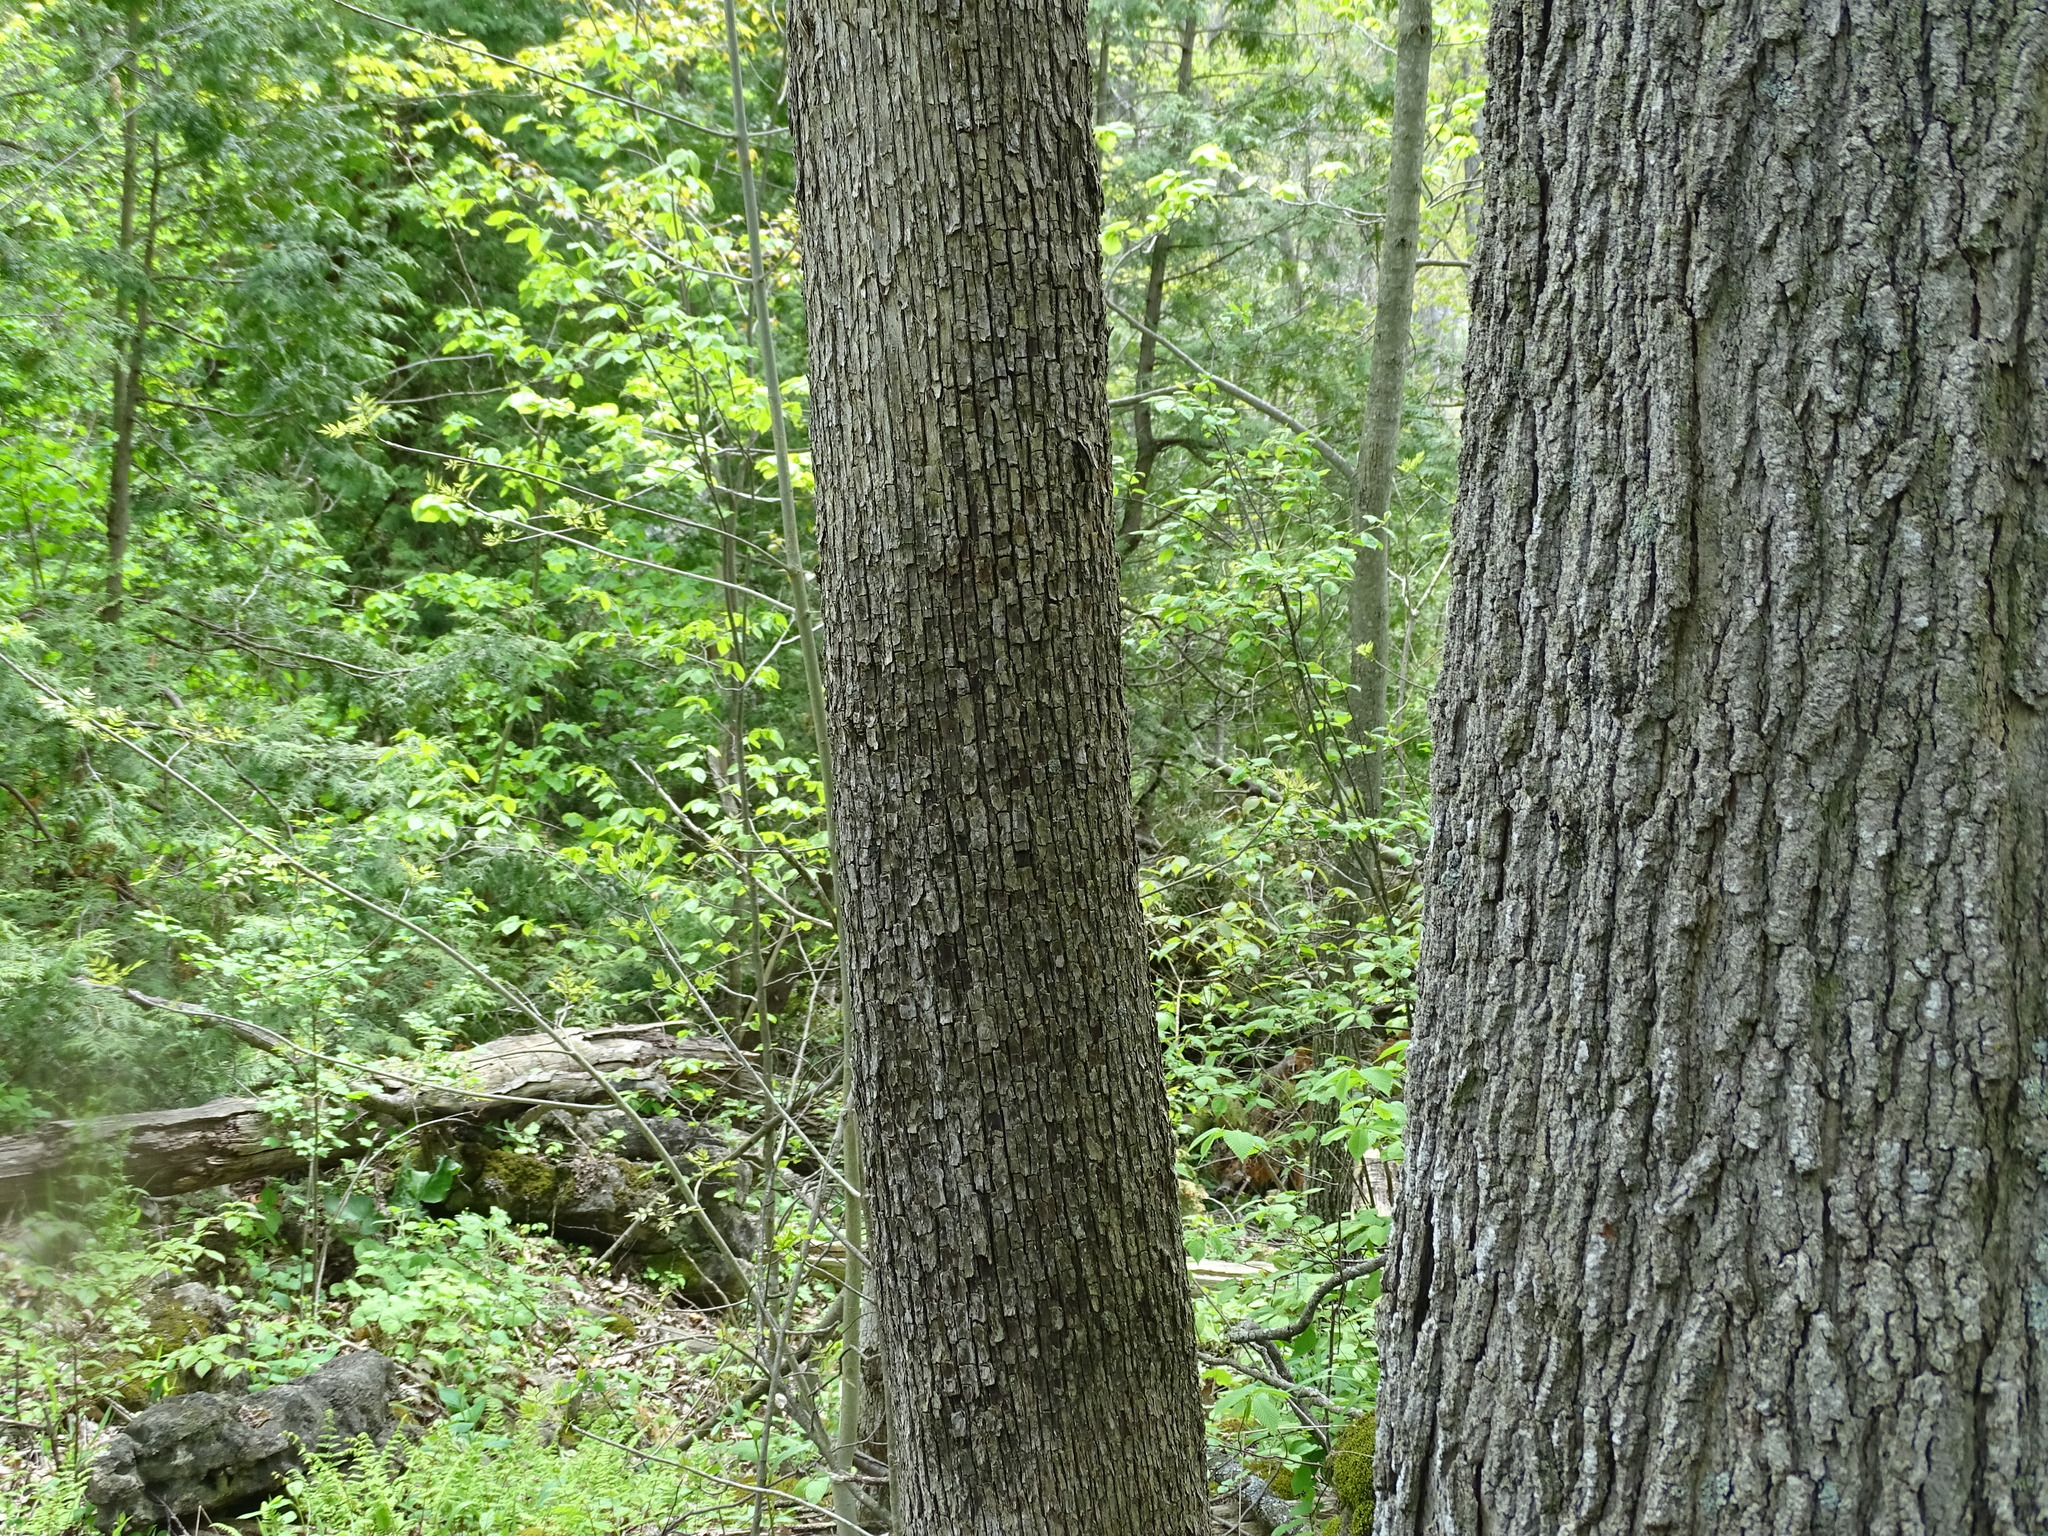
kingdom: Plantae
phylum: Tracheophyta
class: Magnoliopsida
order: Fagales
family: Betulaceae
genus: Ostrya
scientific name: Ostrya virginiana
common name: Ironwood
